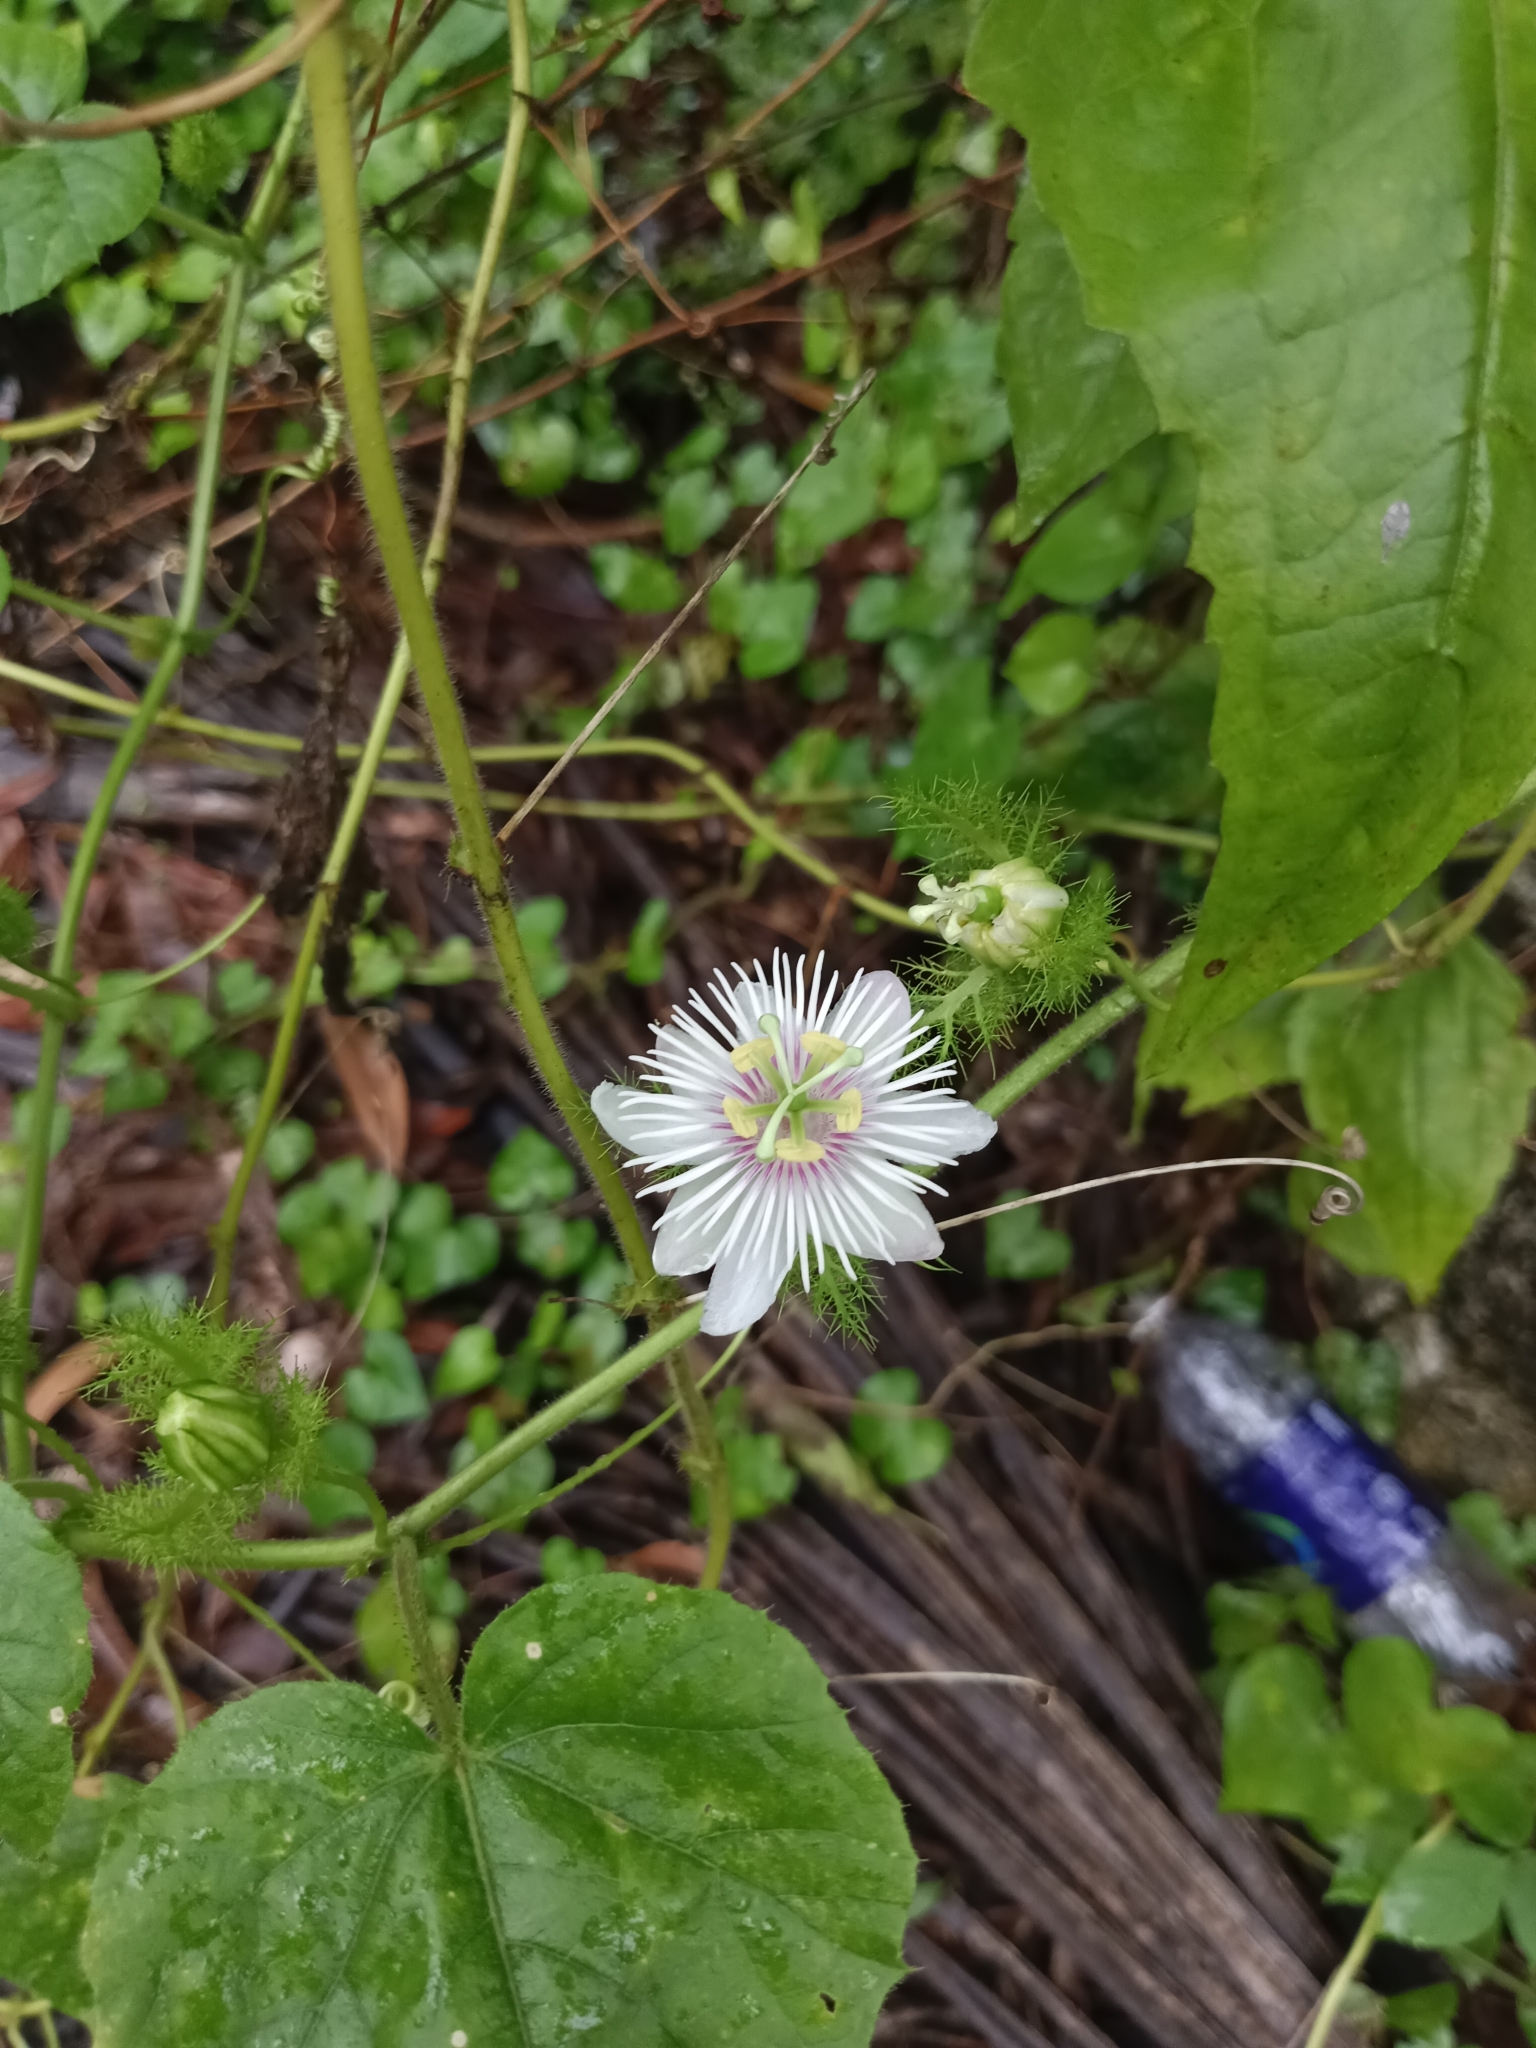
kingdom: Plantae
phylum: Tracheophyta
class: Magnoliopsida
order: Malpighiales
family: Passifloraceae
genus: Passiflora
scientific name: Passiflora vesicaria
